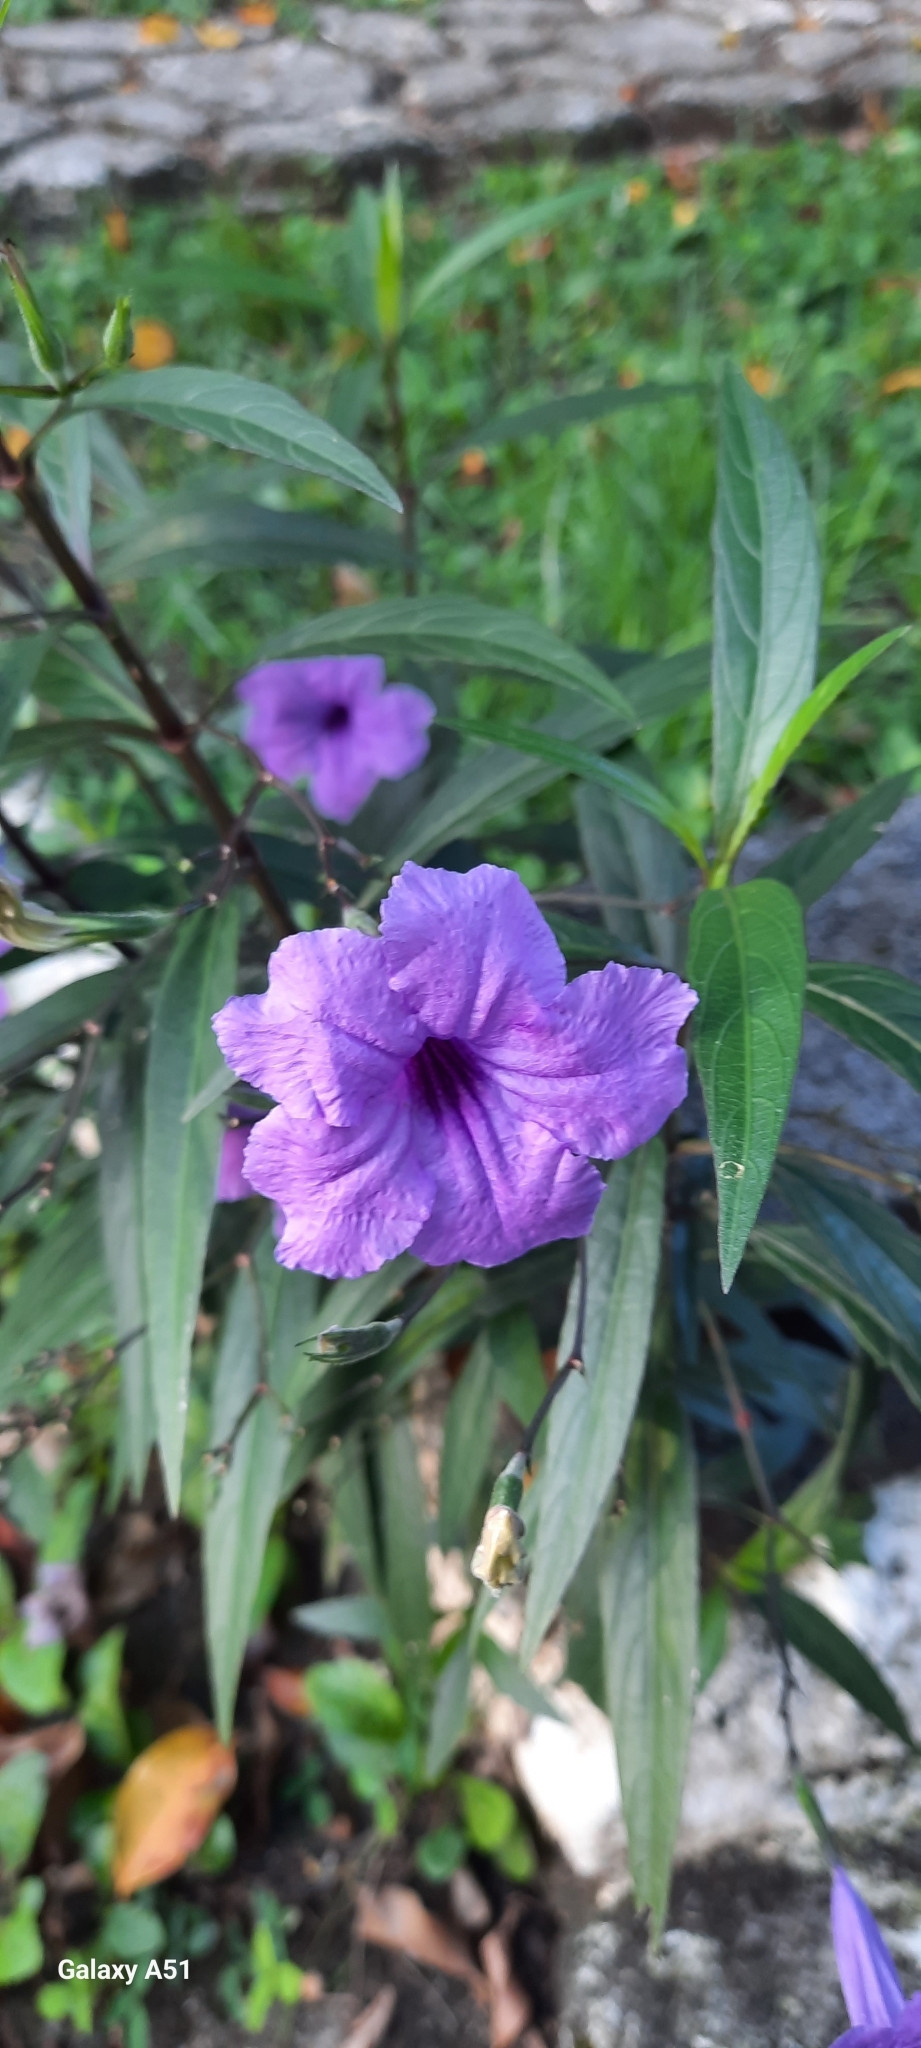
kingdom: Plantae
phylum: Tracheophyta
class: Magnoliopsida
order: Lamiales
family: Acanthaceae
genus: Ruellia
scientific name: Ruellia simplex
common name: Softseed wild petunia
